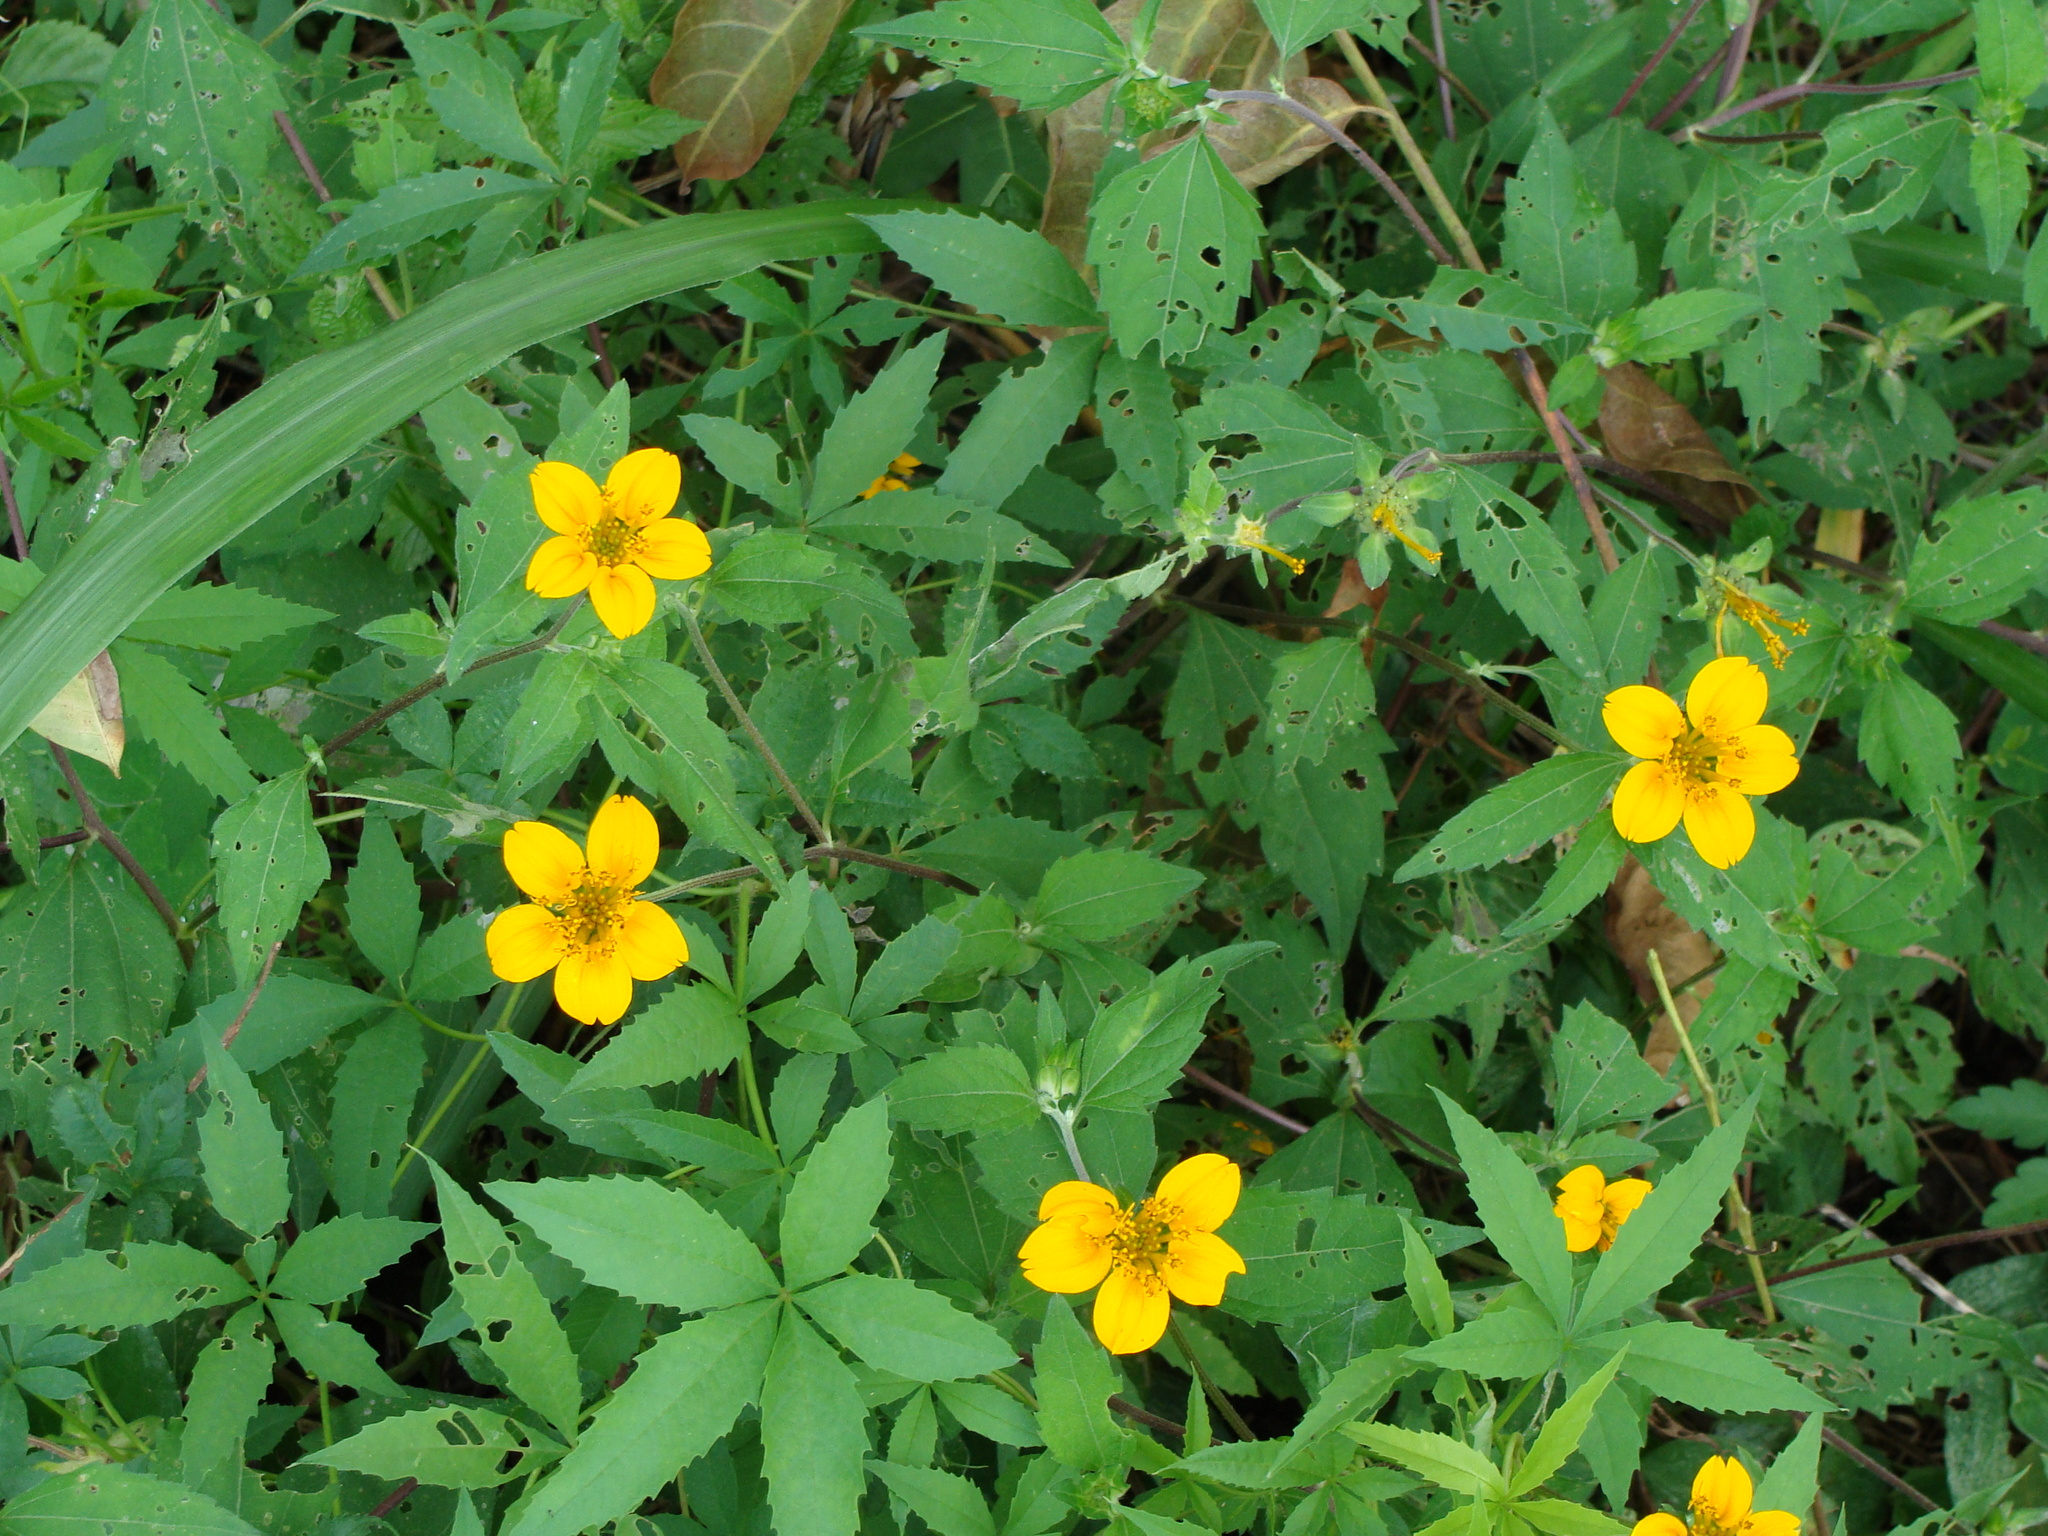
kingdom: Plantae
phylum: Tracheophyta
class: Magnoliopsida
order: Asterales
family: Asteraceae
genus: Sclerocarpus
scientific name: Sclerocarpus divaricatus
